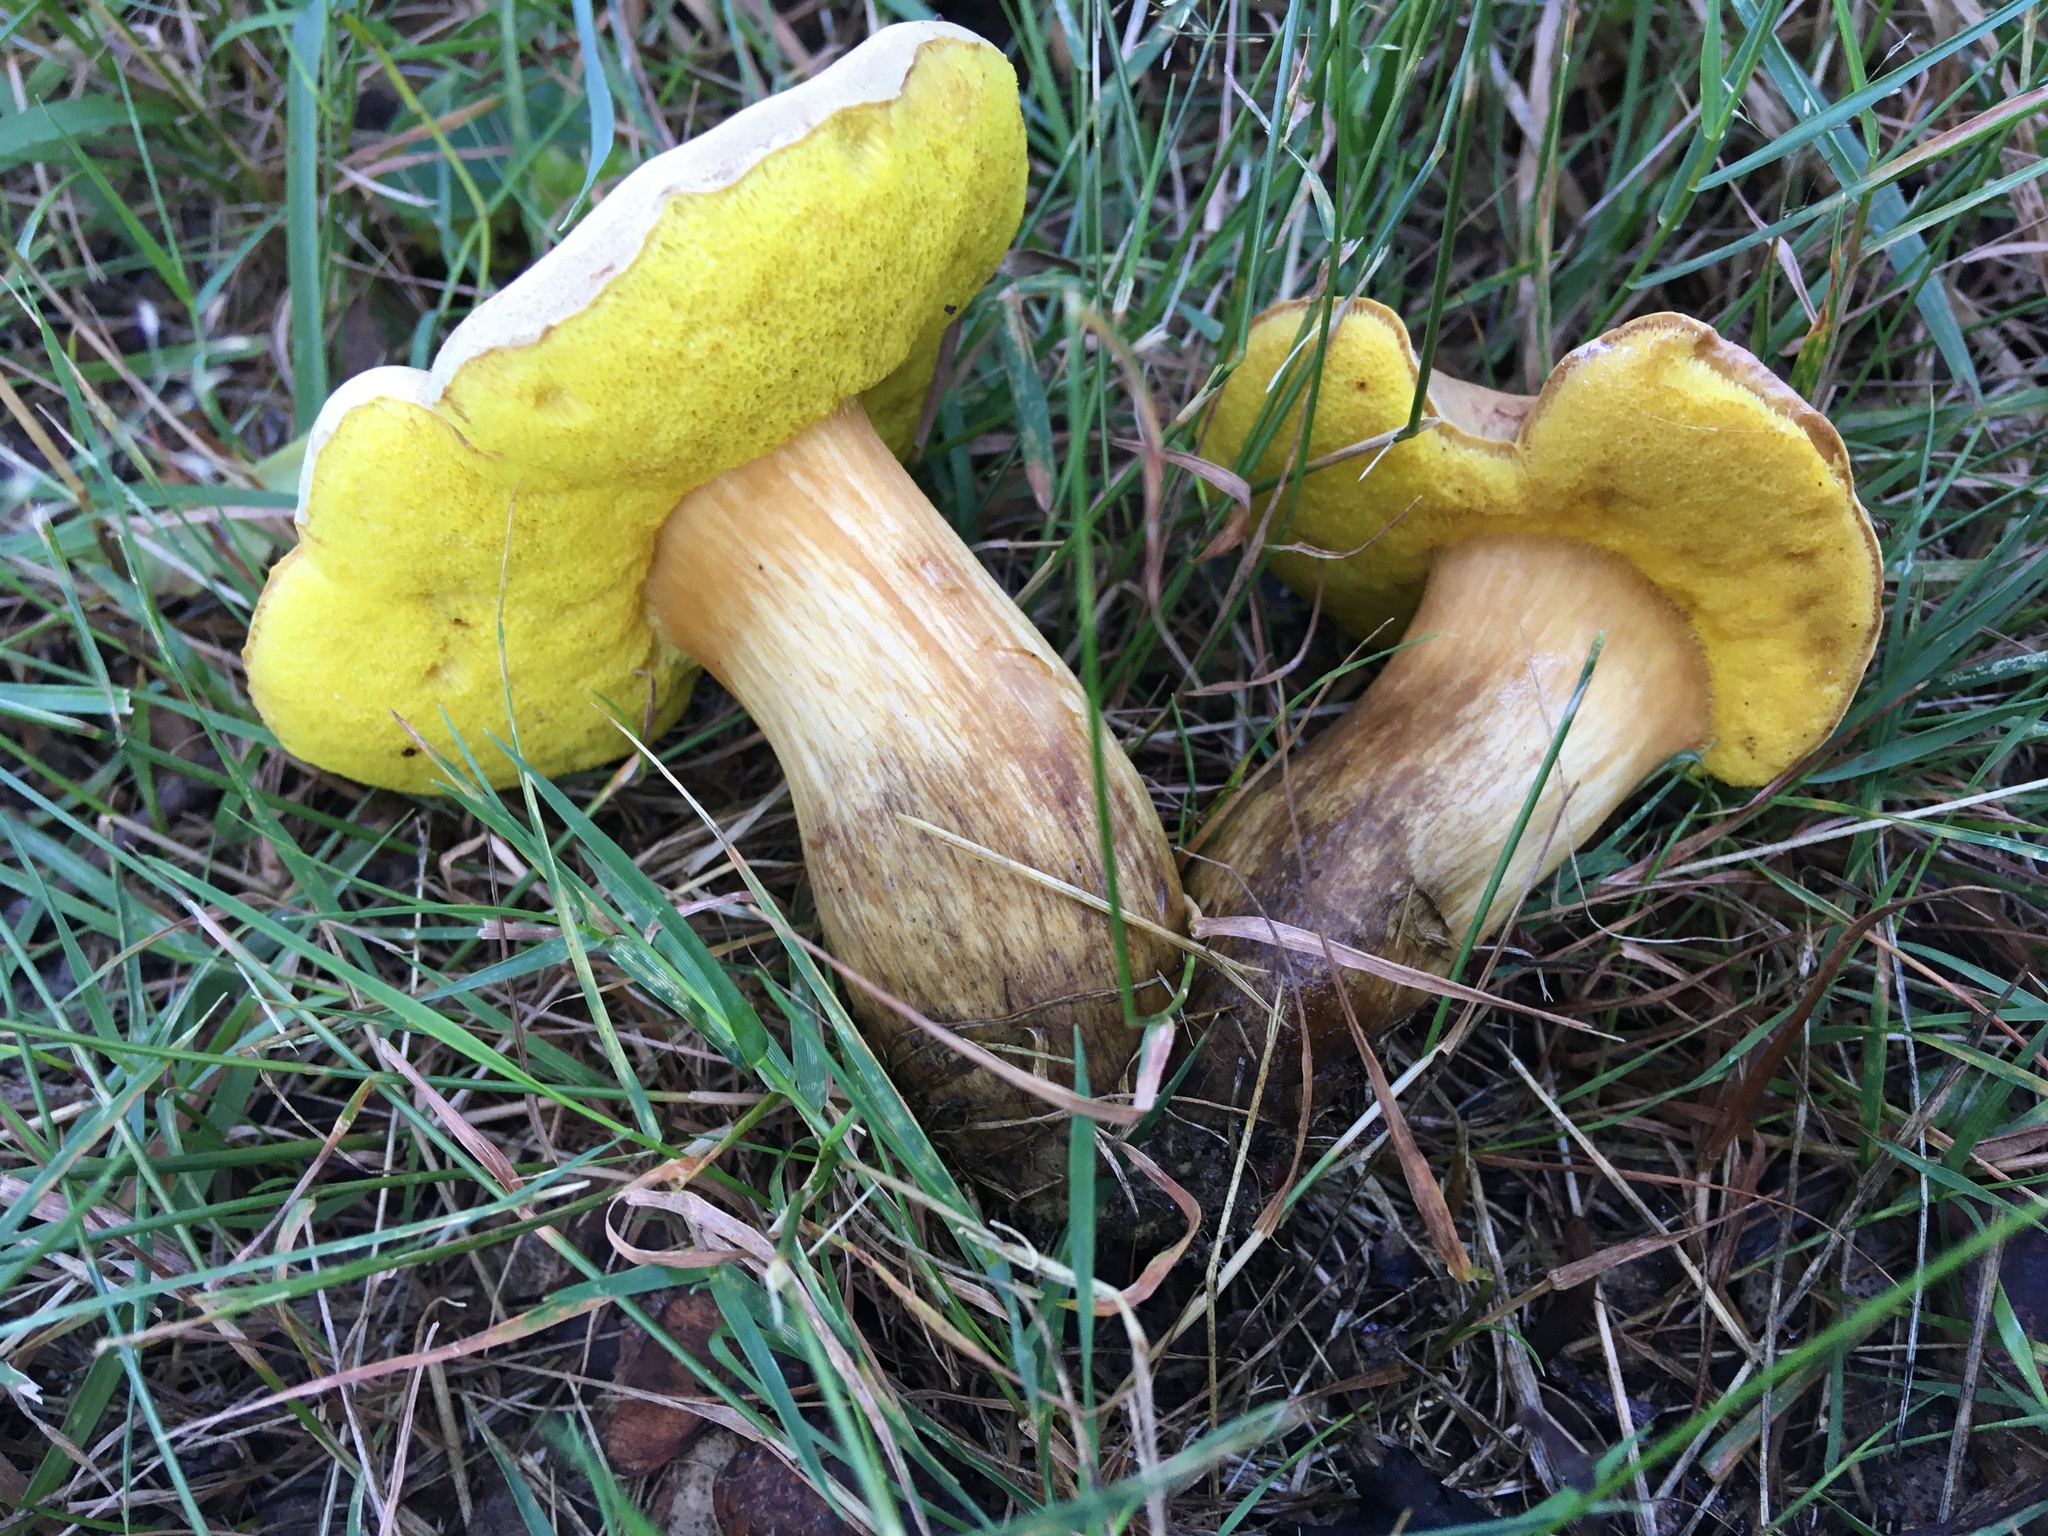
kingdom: Fungi
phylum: Basidiomycota
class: Agaricomycetes
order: Boletales
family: Boletaceae
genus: Aureoboletus
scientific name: Aureoboletus innixus
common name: Clustered brown bolete
